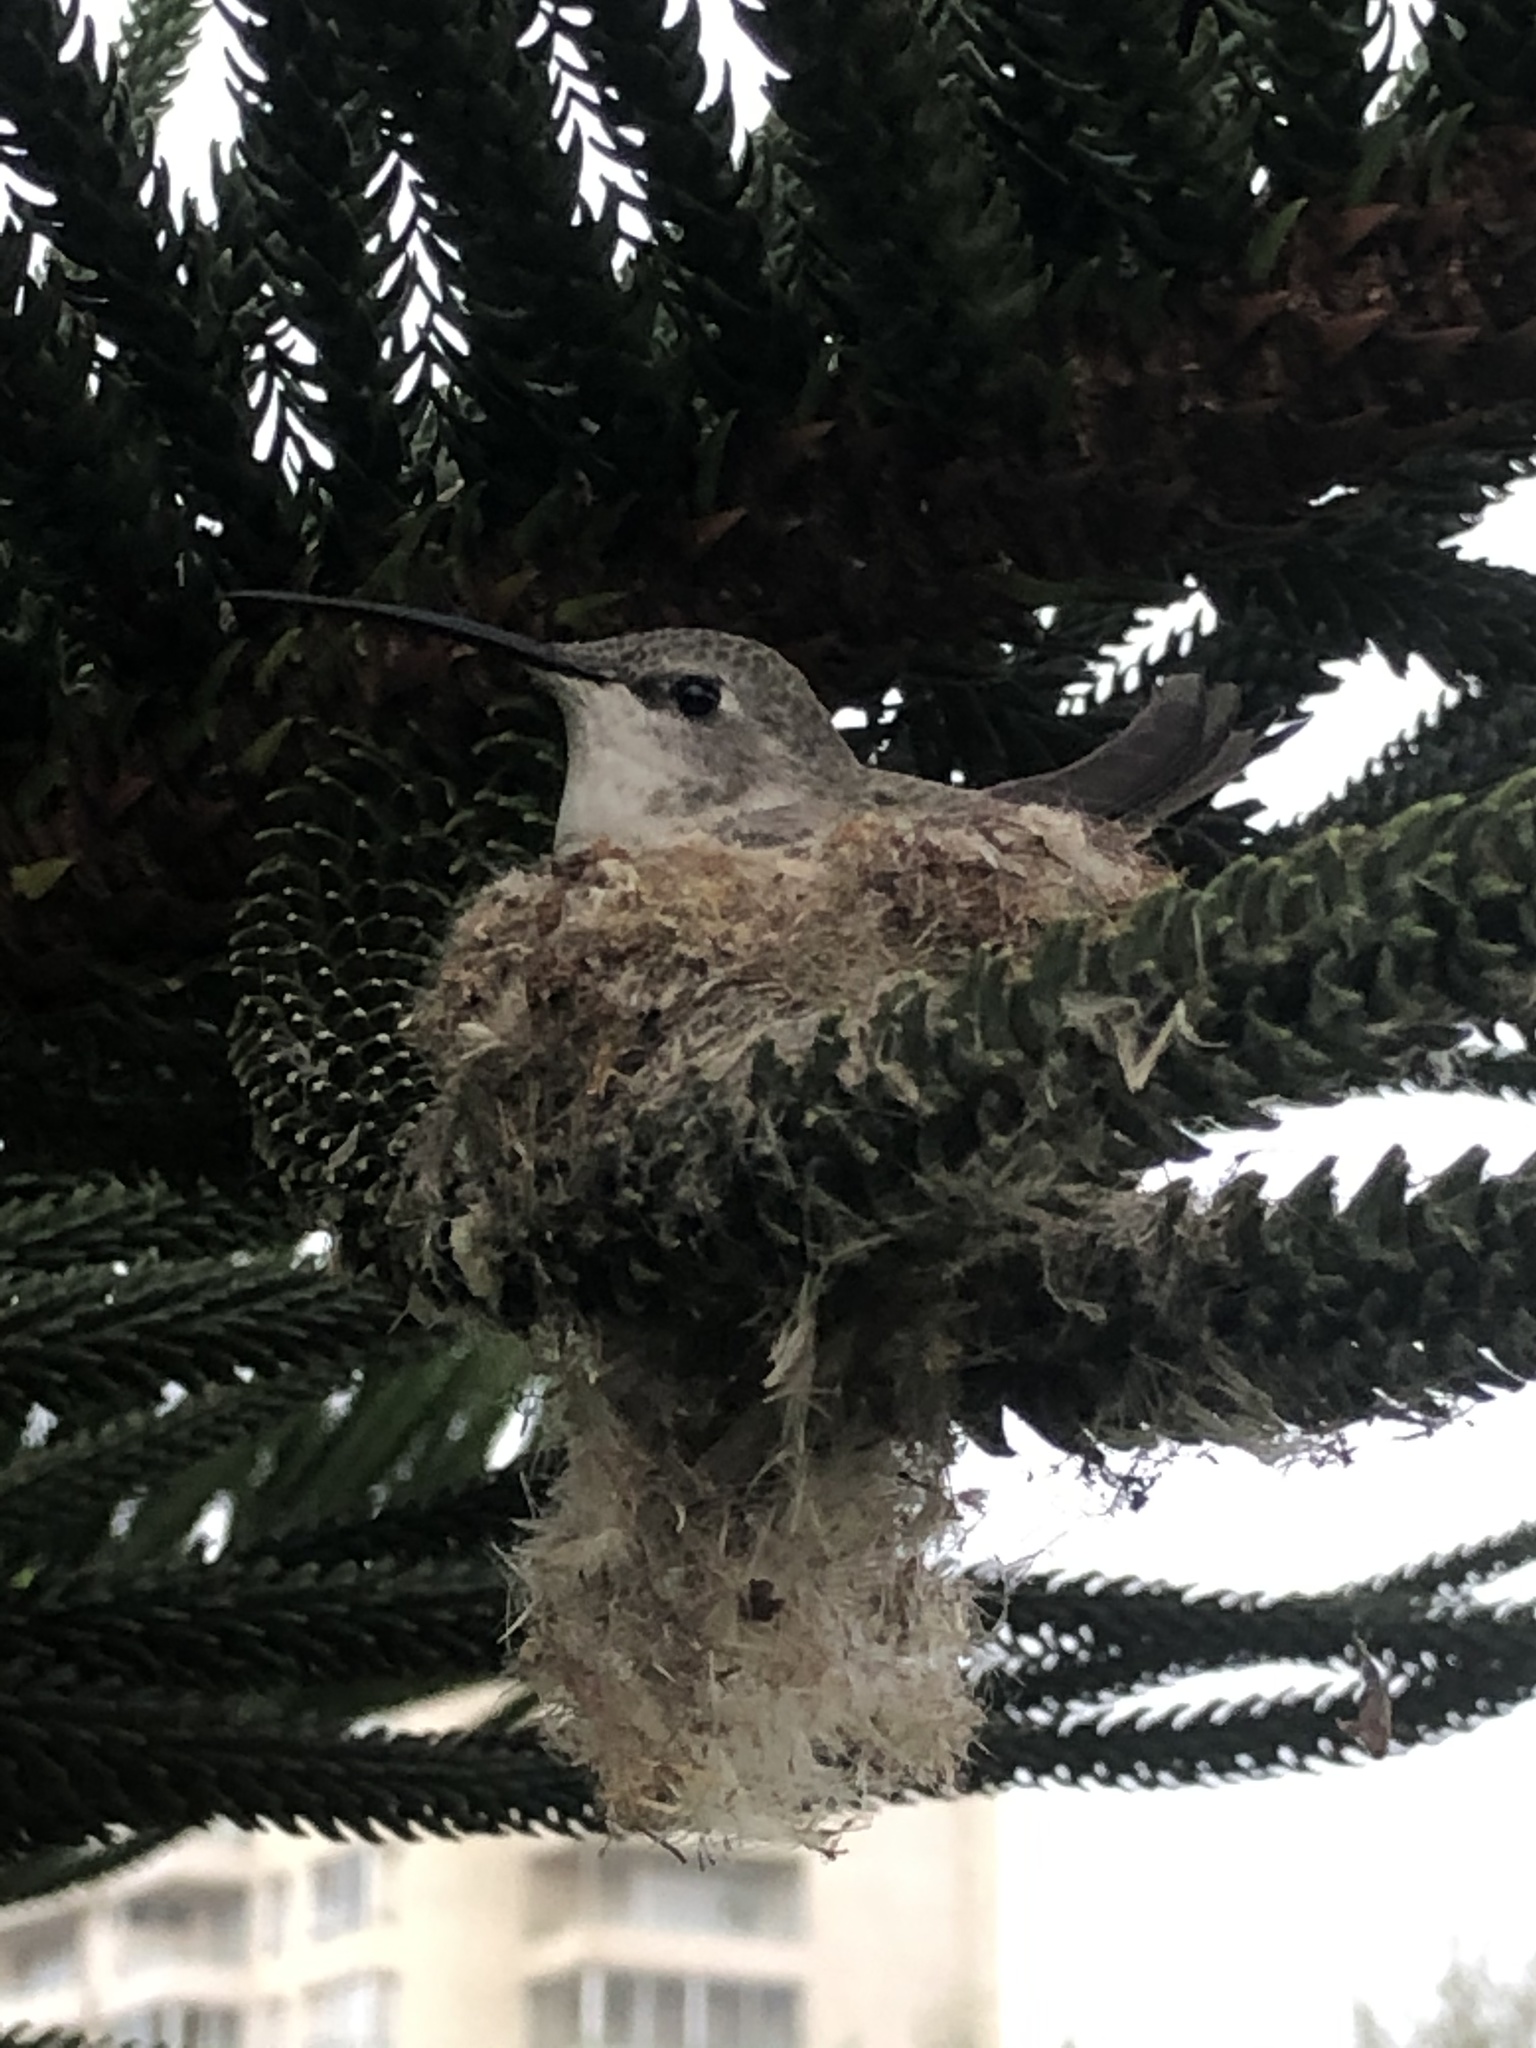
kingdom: Animalia
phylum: Chordata
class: Aves
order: Apodiformes
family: Trochilidae
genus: Rhodopis
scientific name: Rhodopis vesper
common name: Oasis hummingbird
